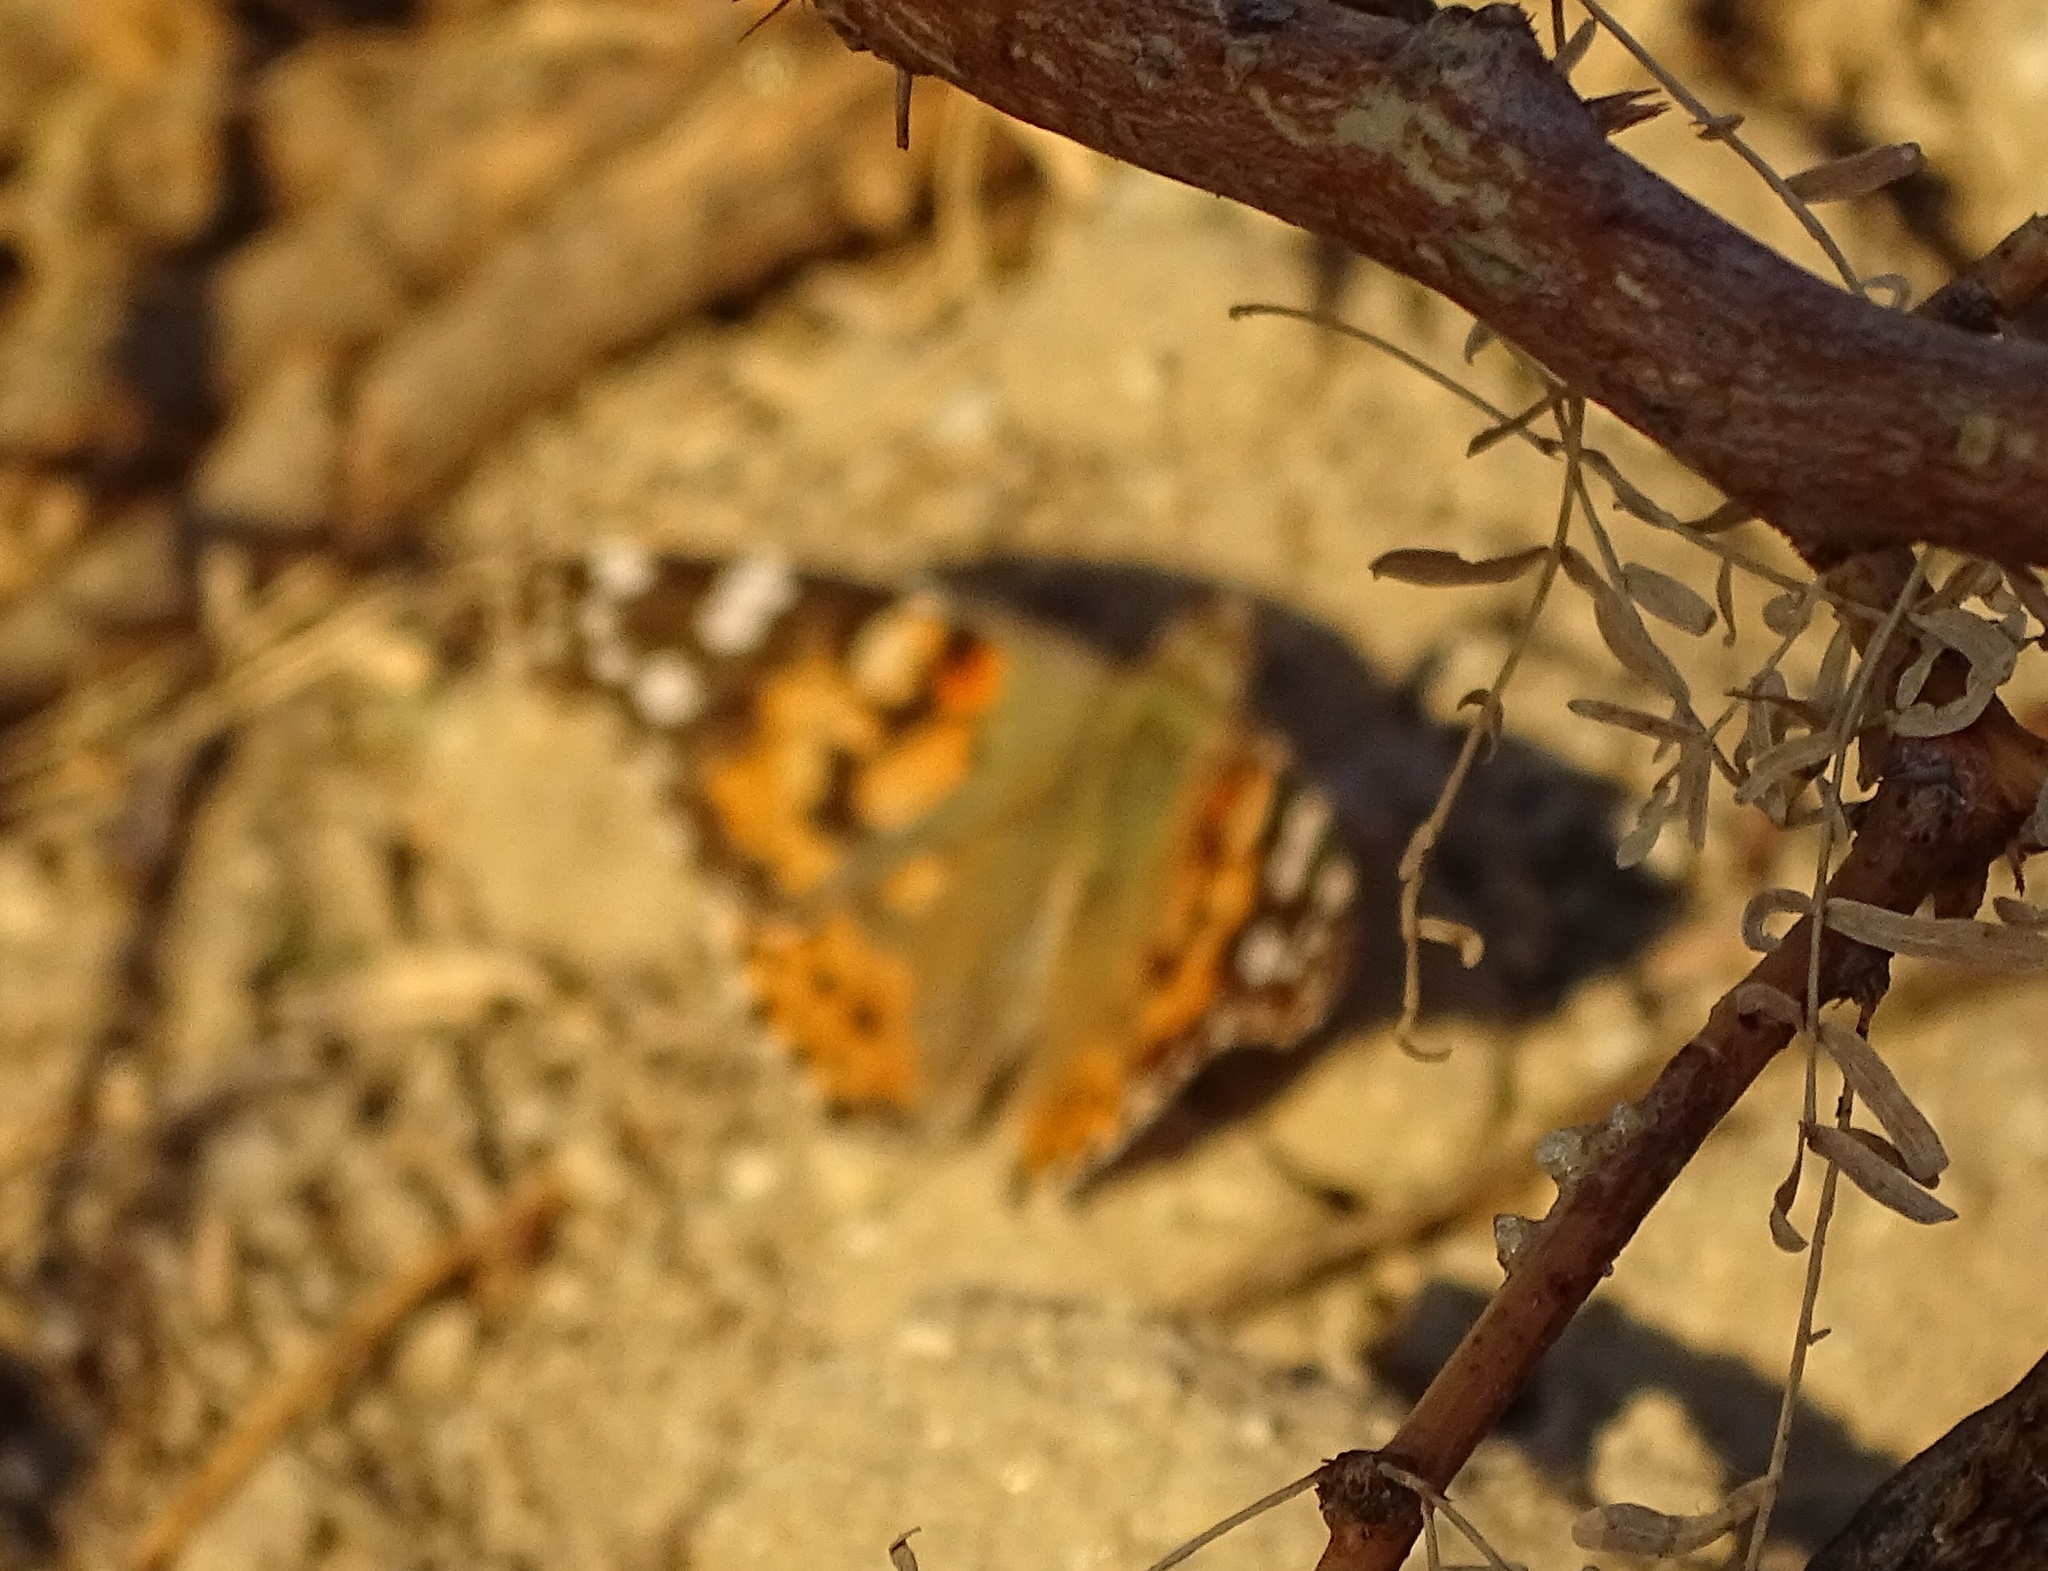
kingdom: Animalia
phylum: Arthropoda
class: Insecta
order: Lepidoptera
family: Nymphalidae
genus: Vanessa
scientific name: Vanessa cardui
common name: Painted lady
